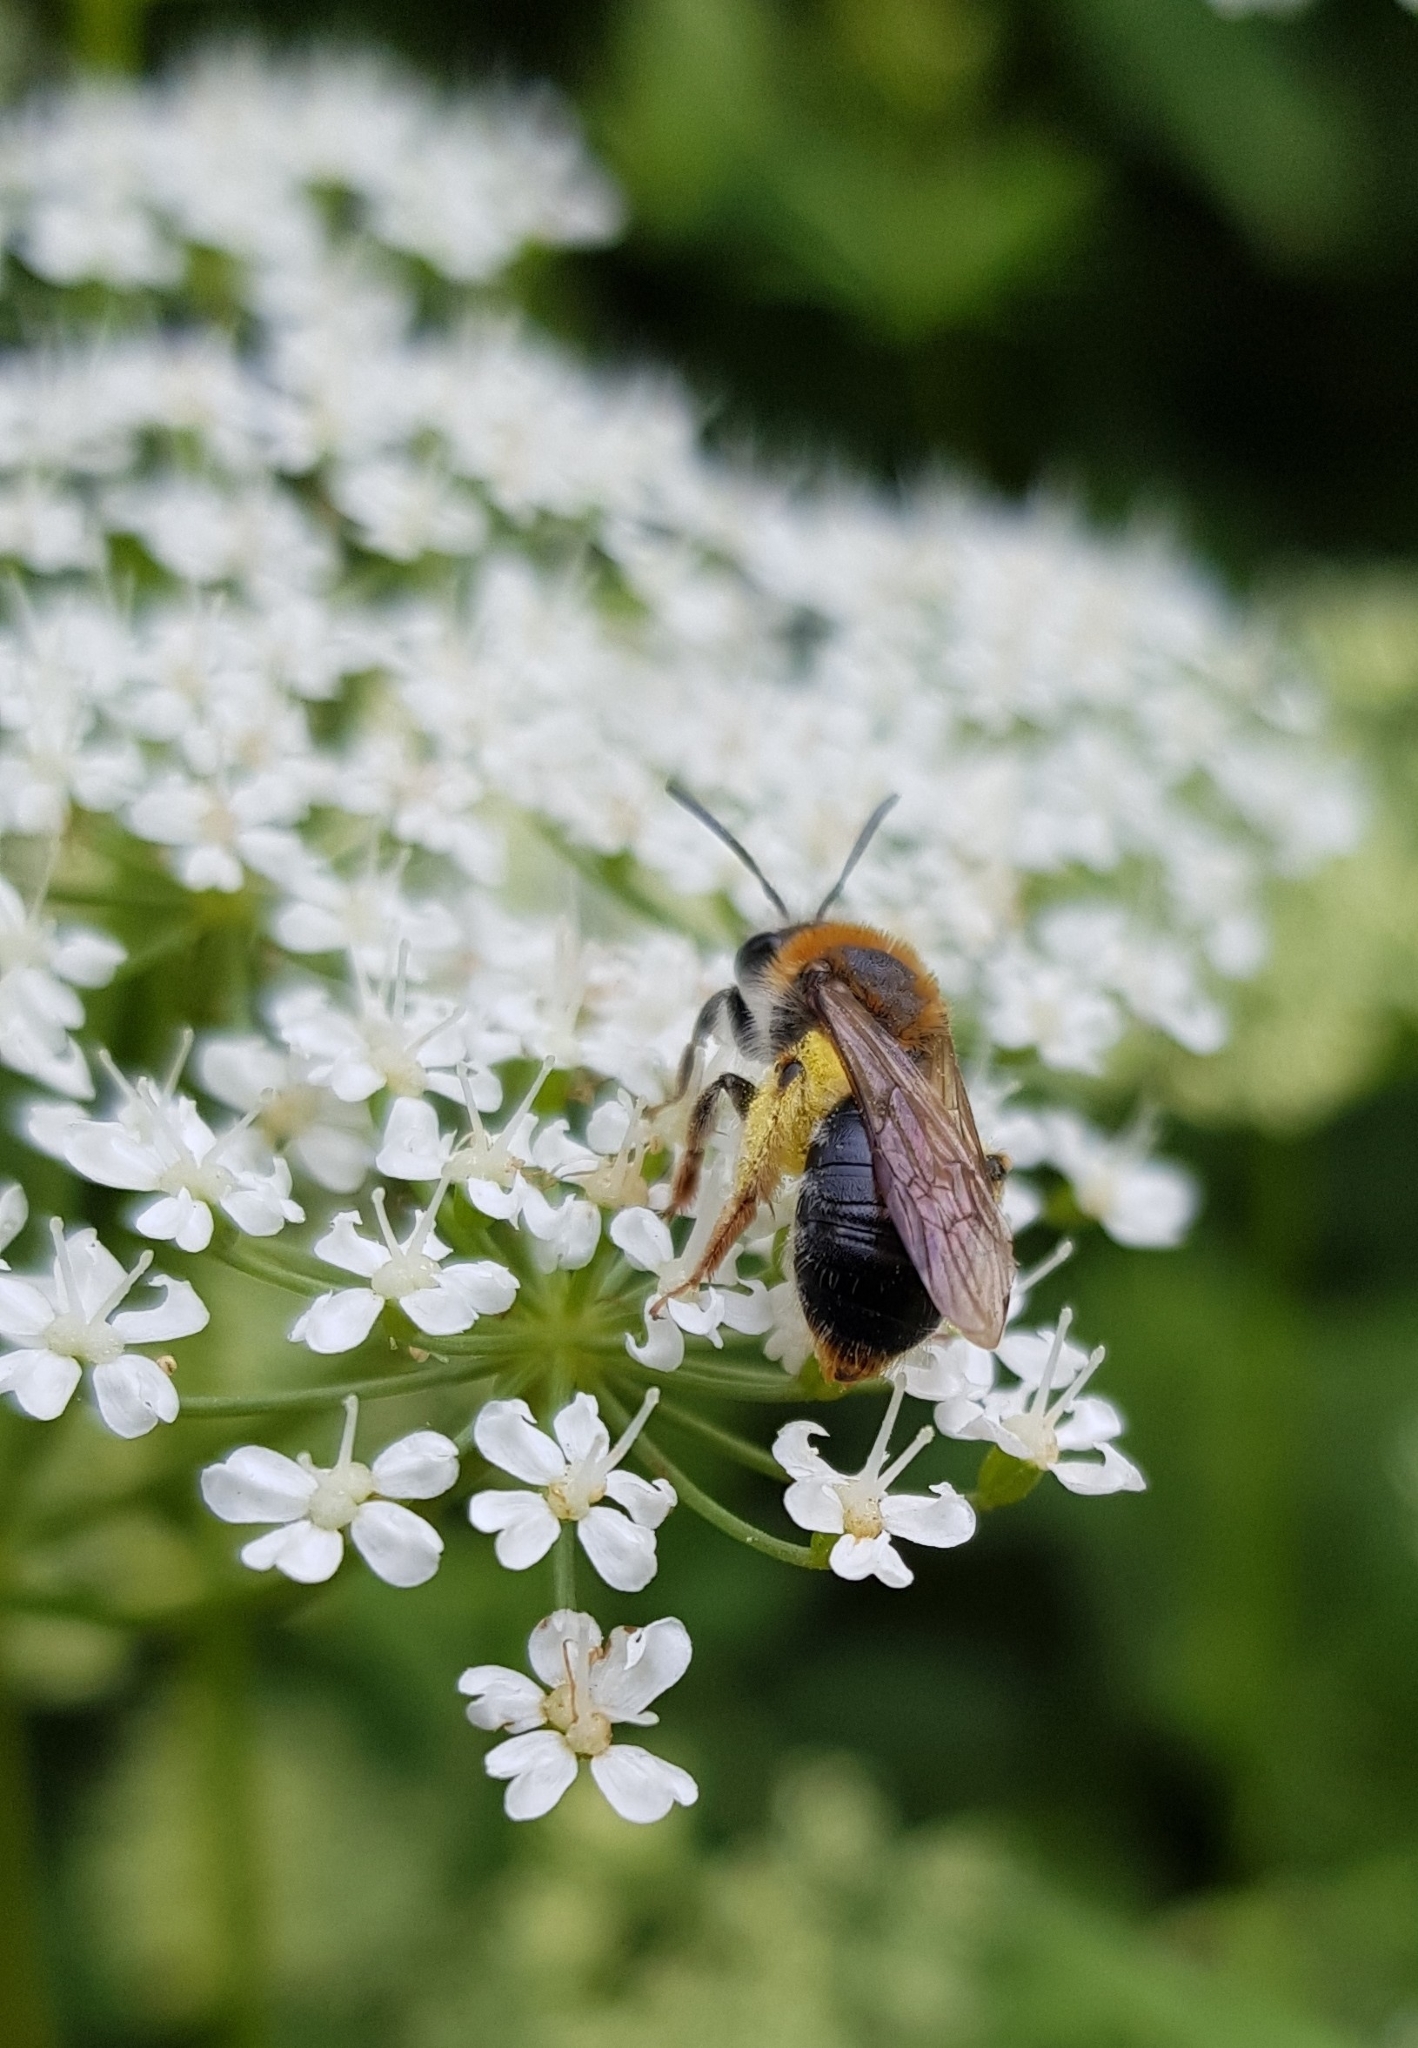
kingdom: Animalia
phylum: Arthropoda
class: Insecta
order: Hymenoptera
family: Andrenidae
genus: Andrena
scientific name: Andrena haemorrhoa
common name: Early mining bee
